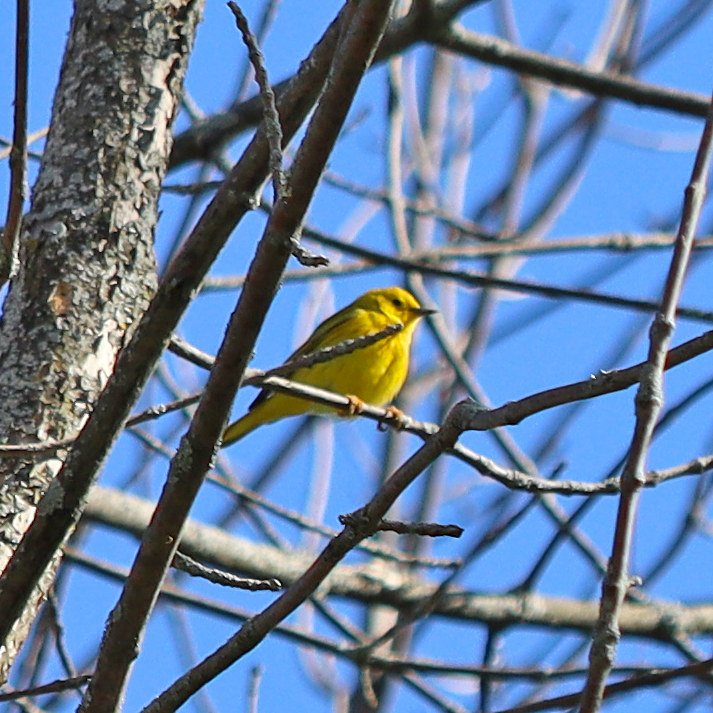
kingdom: Animalia
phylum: Chordata
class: Aves
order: Passeriformes
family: Parulidae
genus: Setophaga
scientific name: Setophaga petechia
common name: Yellow warbler
